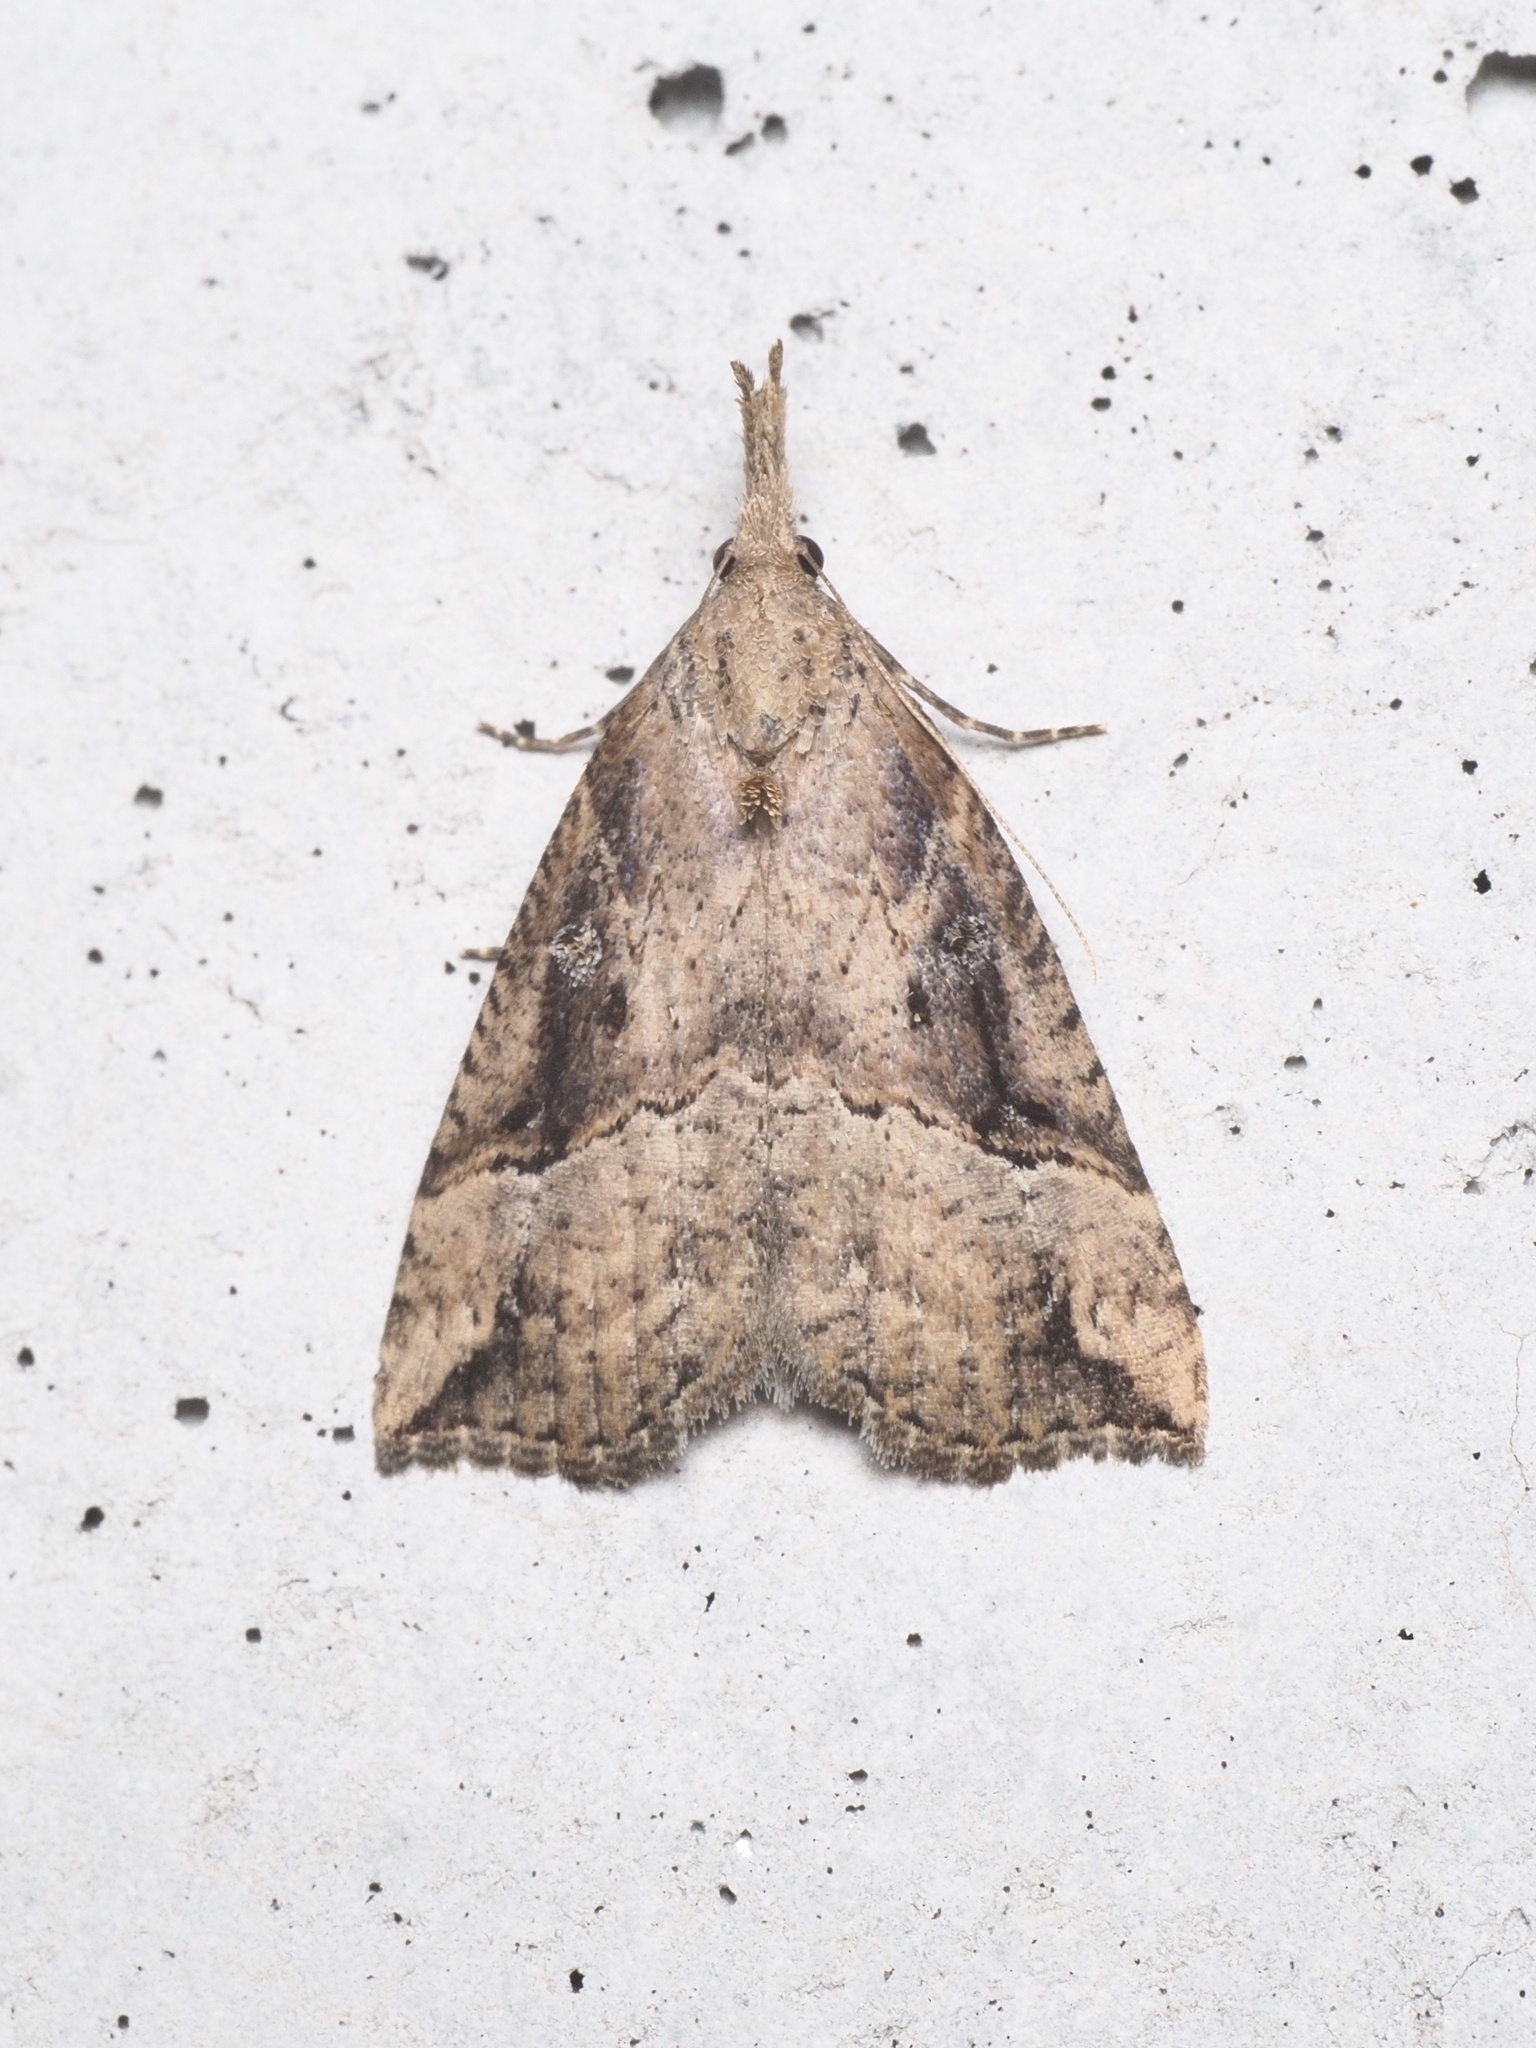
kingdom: Animalia
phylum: Arthropoda
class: Insecta
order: Lepidoptera
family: Erebidae
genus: Hypena
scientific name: Hypena rostralis
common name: Buttoned snout
